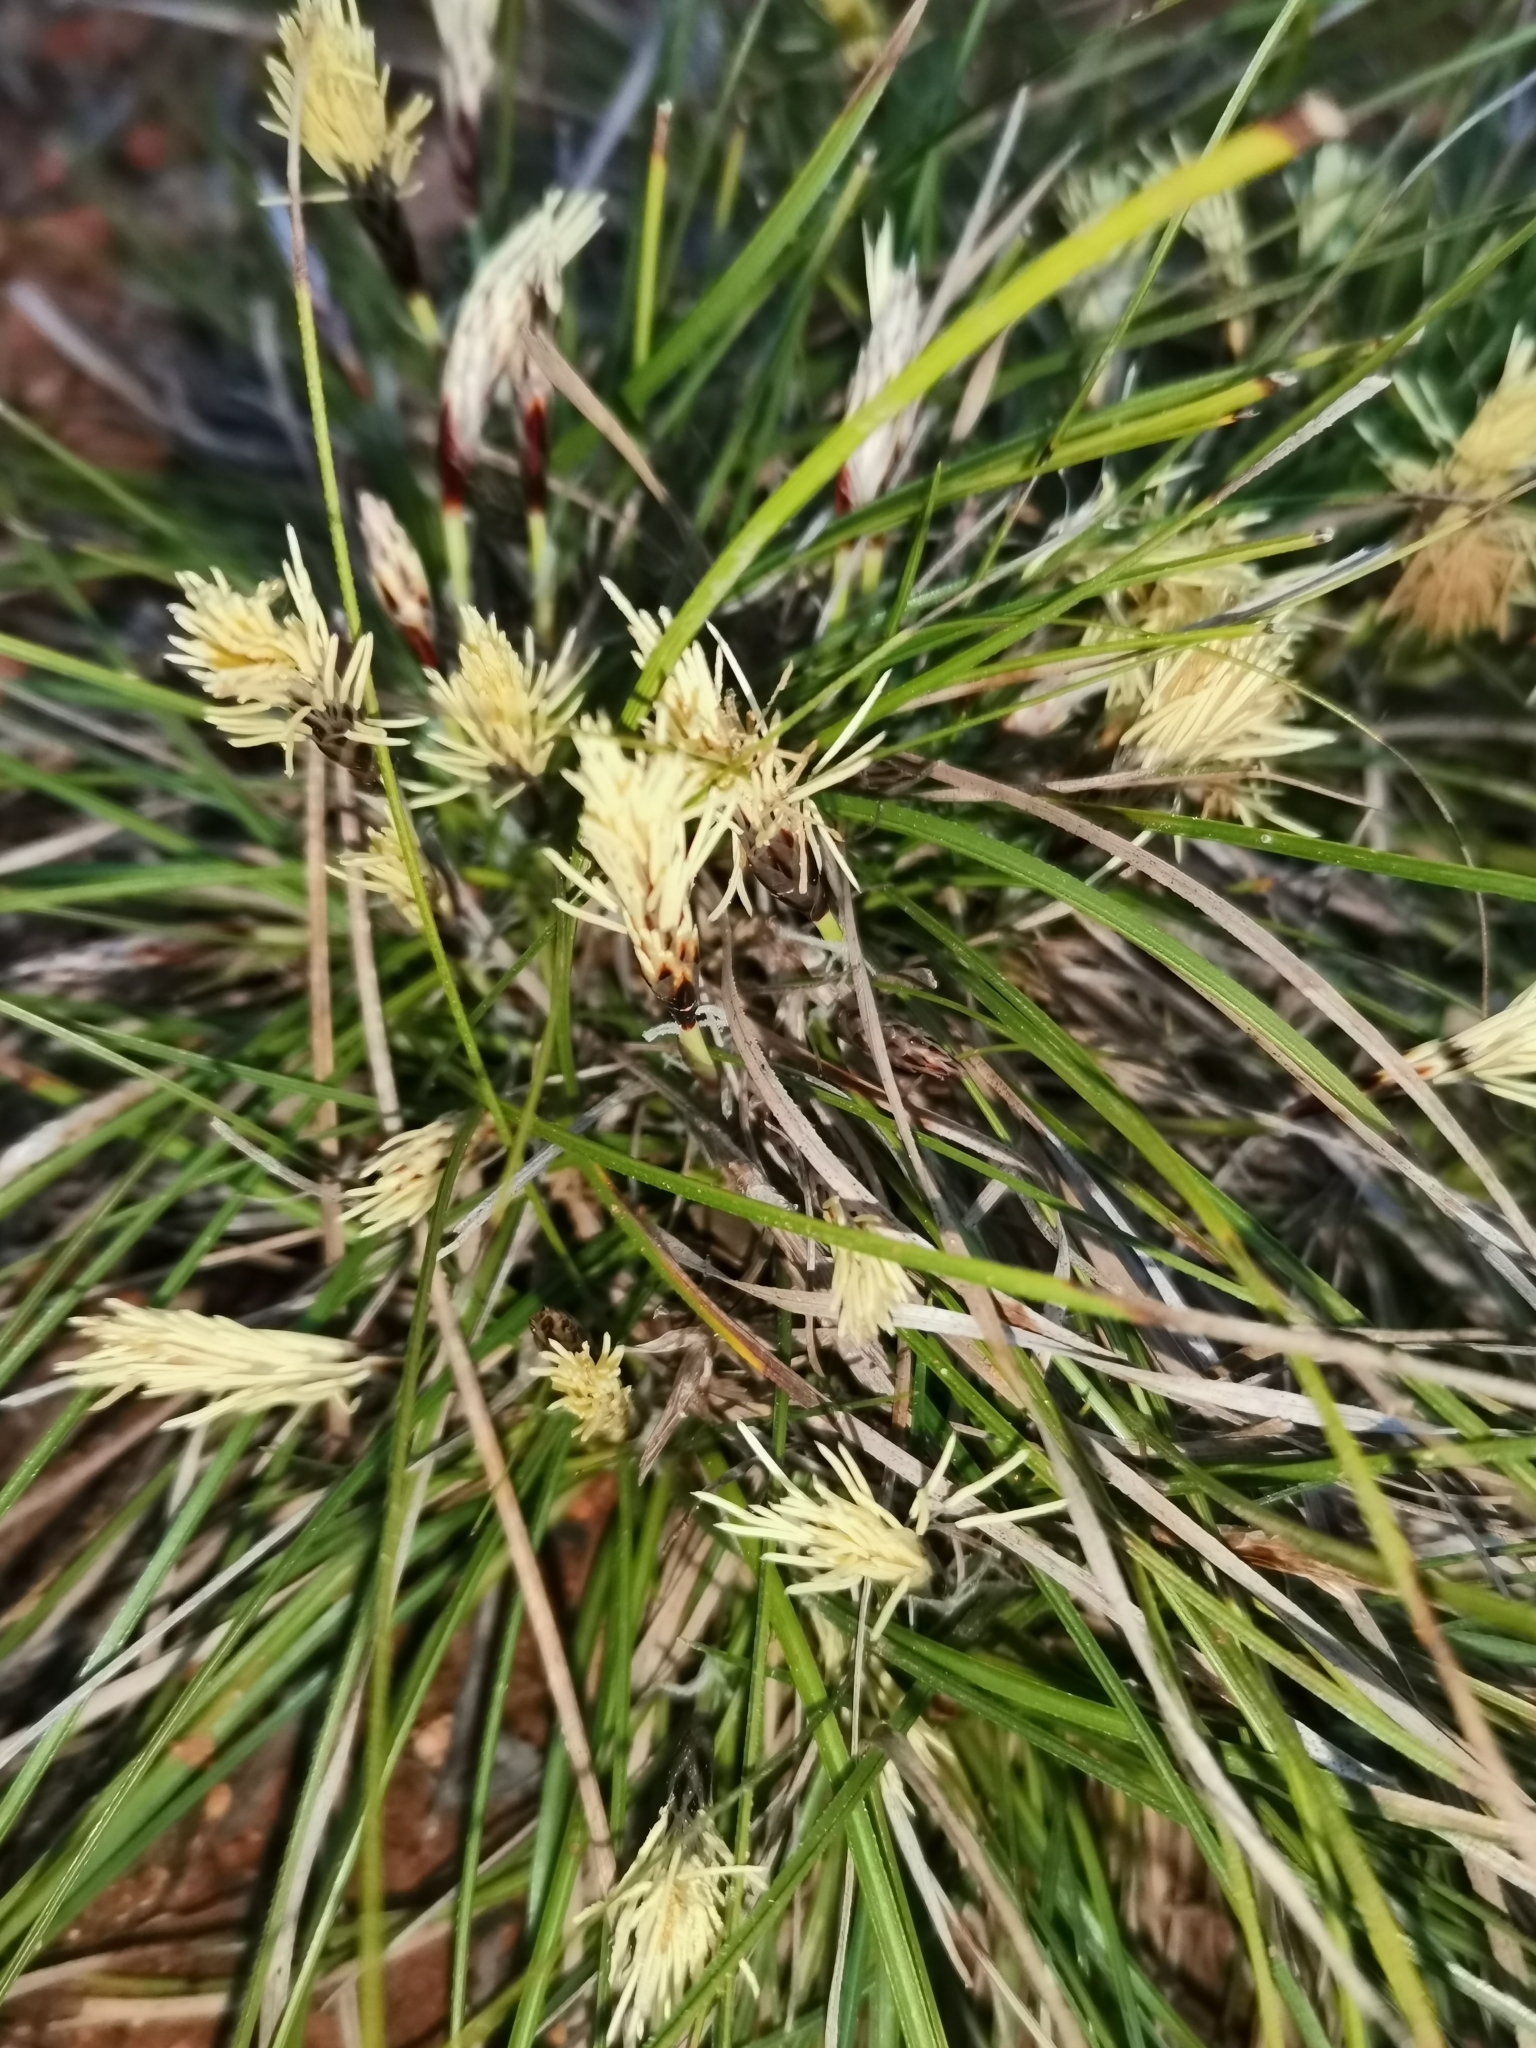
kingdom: Plantae
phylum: Tracheophyta
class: Liliopsida
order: Poales
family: Cyperaceae
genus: Carex
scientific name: Carex humilis
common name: Dwarf sedge
